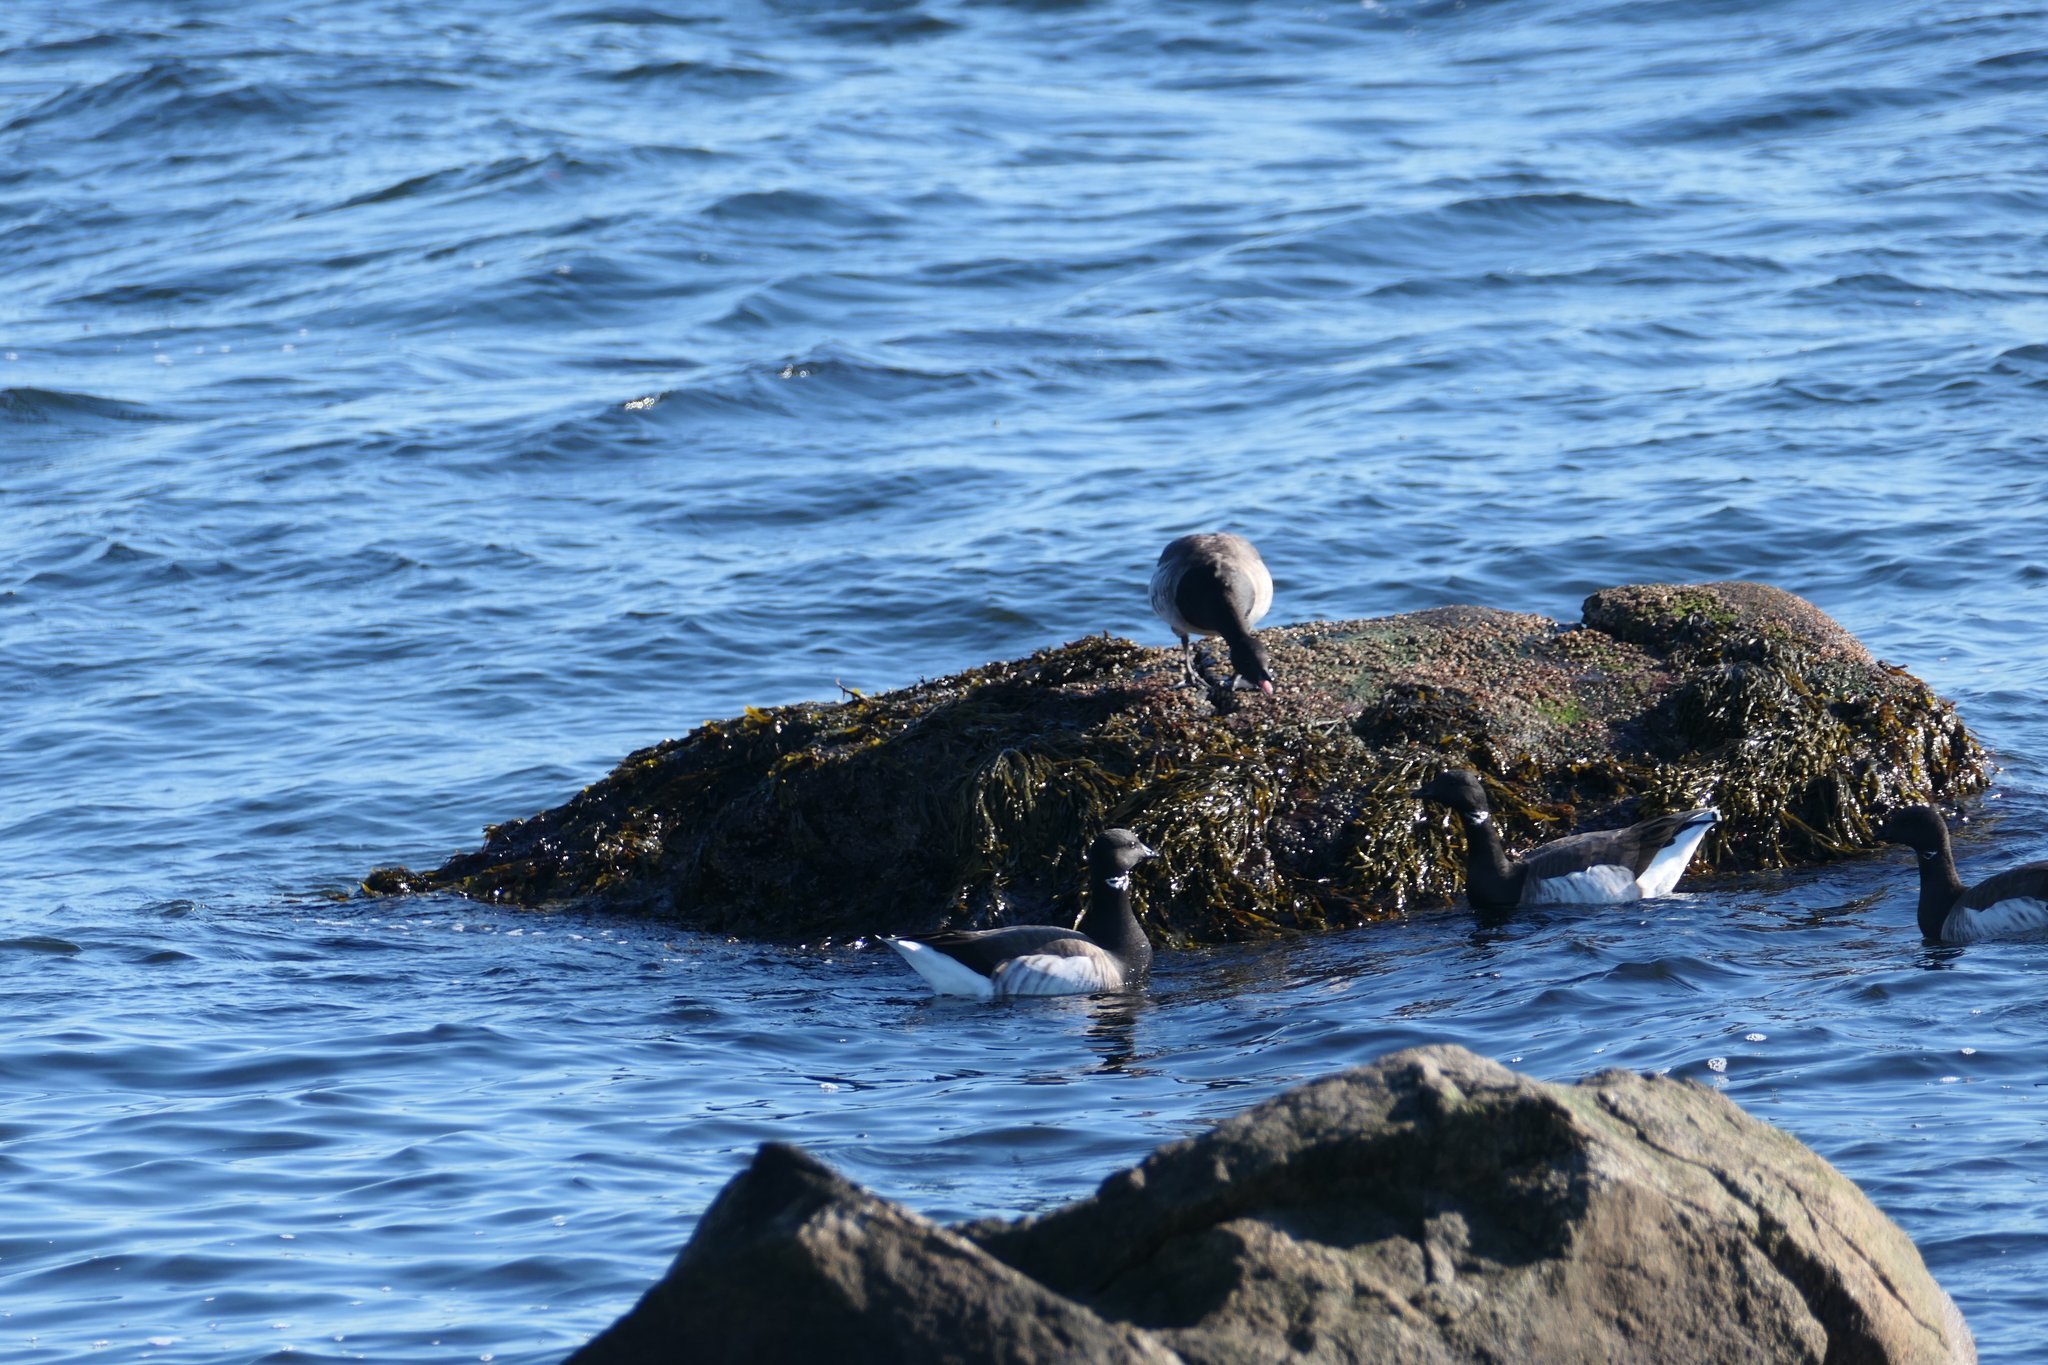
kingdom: Animalia
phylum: Chordata
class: Aves
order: Anseriformes
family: Anatidae
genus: Branta
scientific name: Branta bernicla
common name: Brant goose
